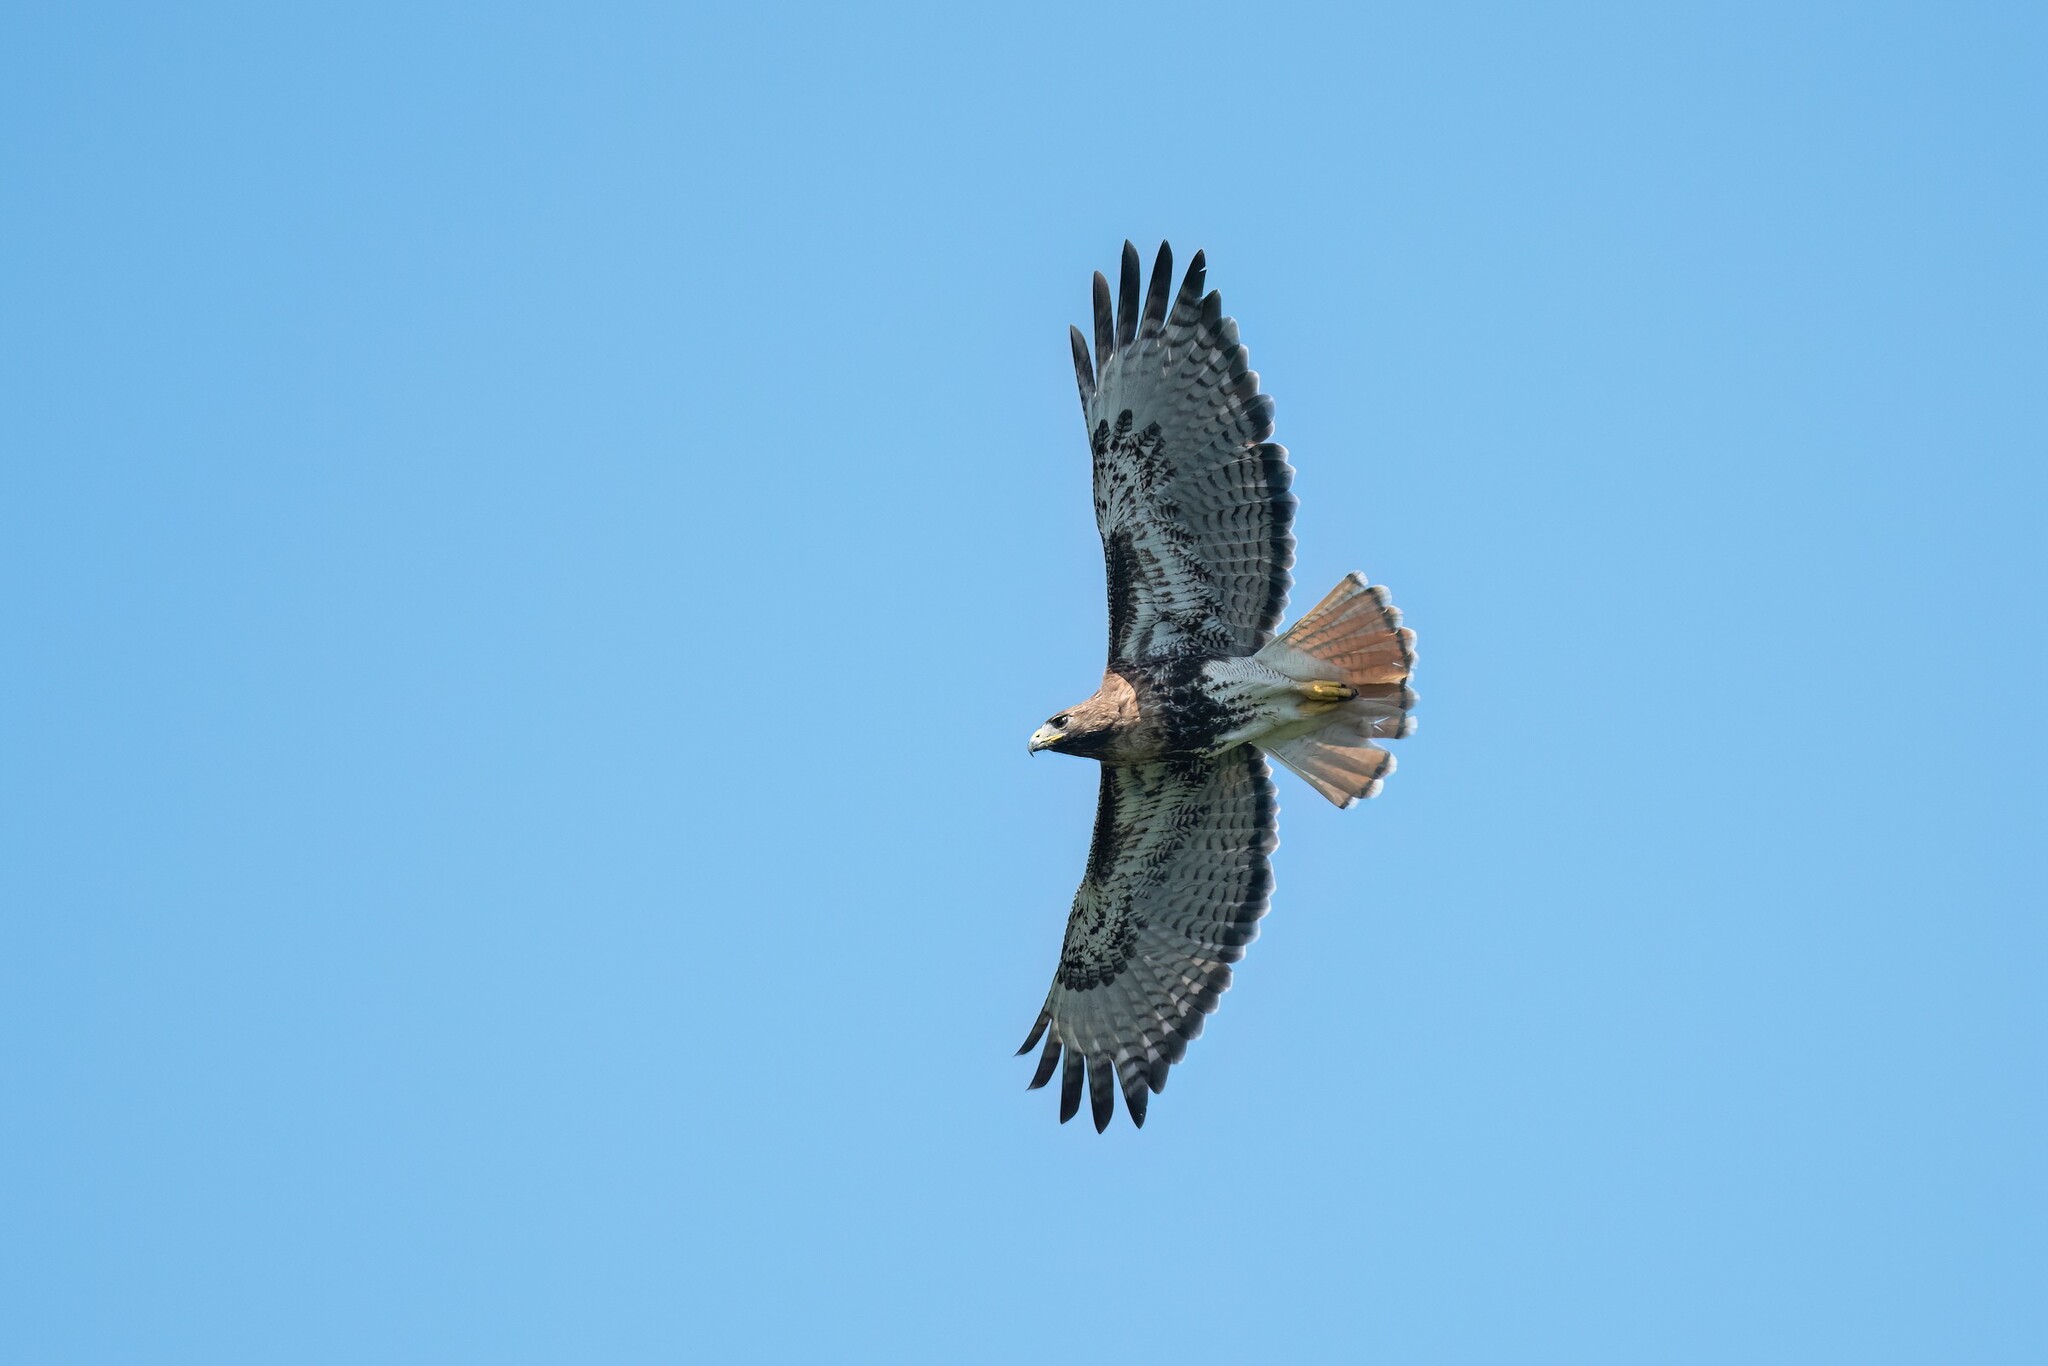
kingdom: Animalia
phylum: Chordata
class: Aves
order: Accipitriformes
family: Accipitridae
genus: Buteo
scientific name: Buteo jamaicensis
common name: Red-tailed hawk
